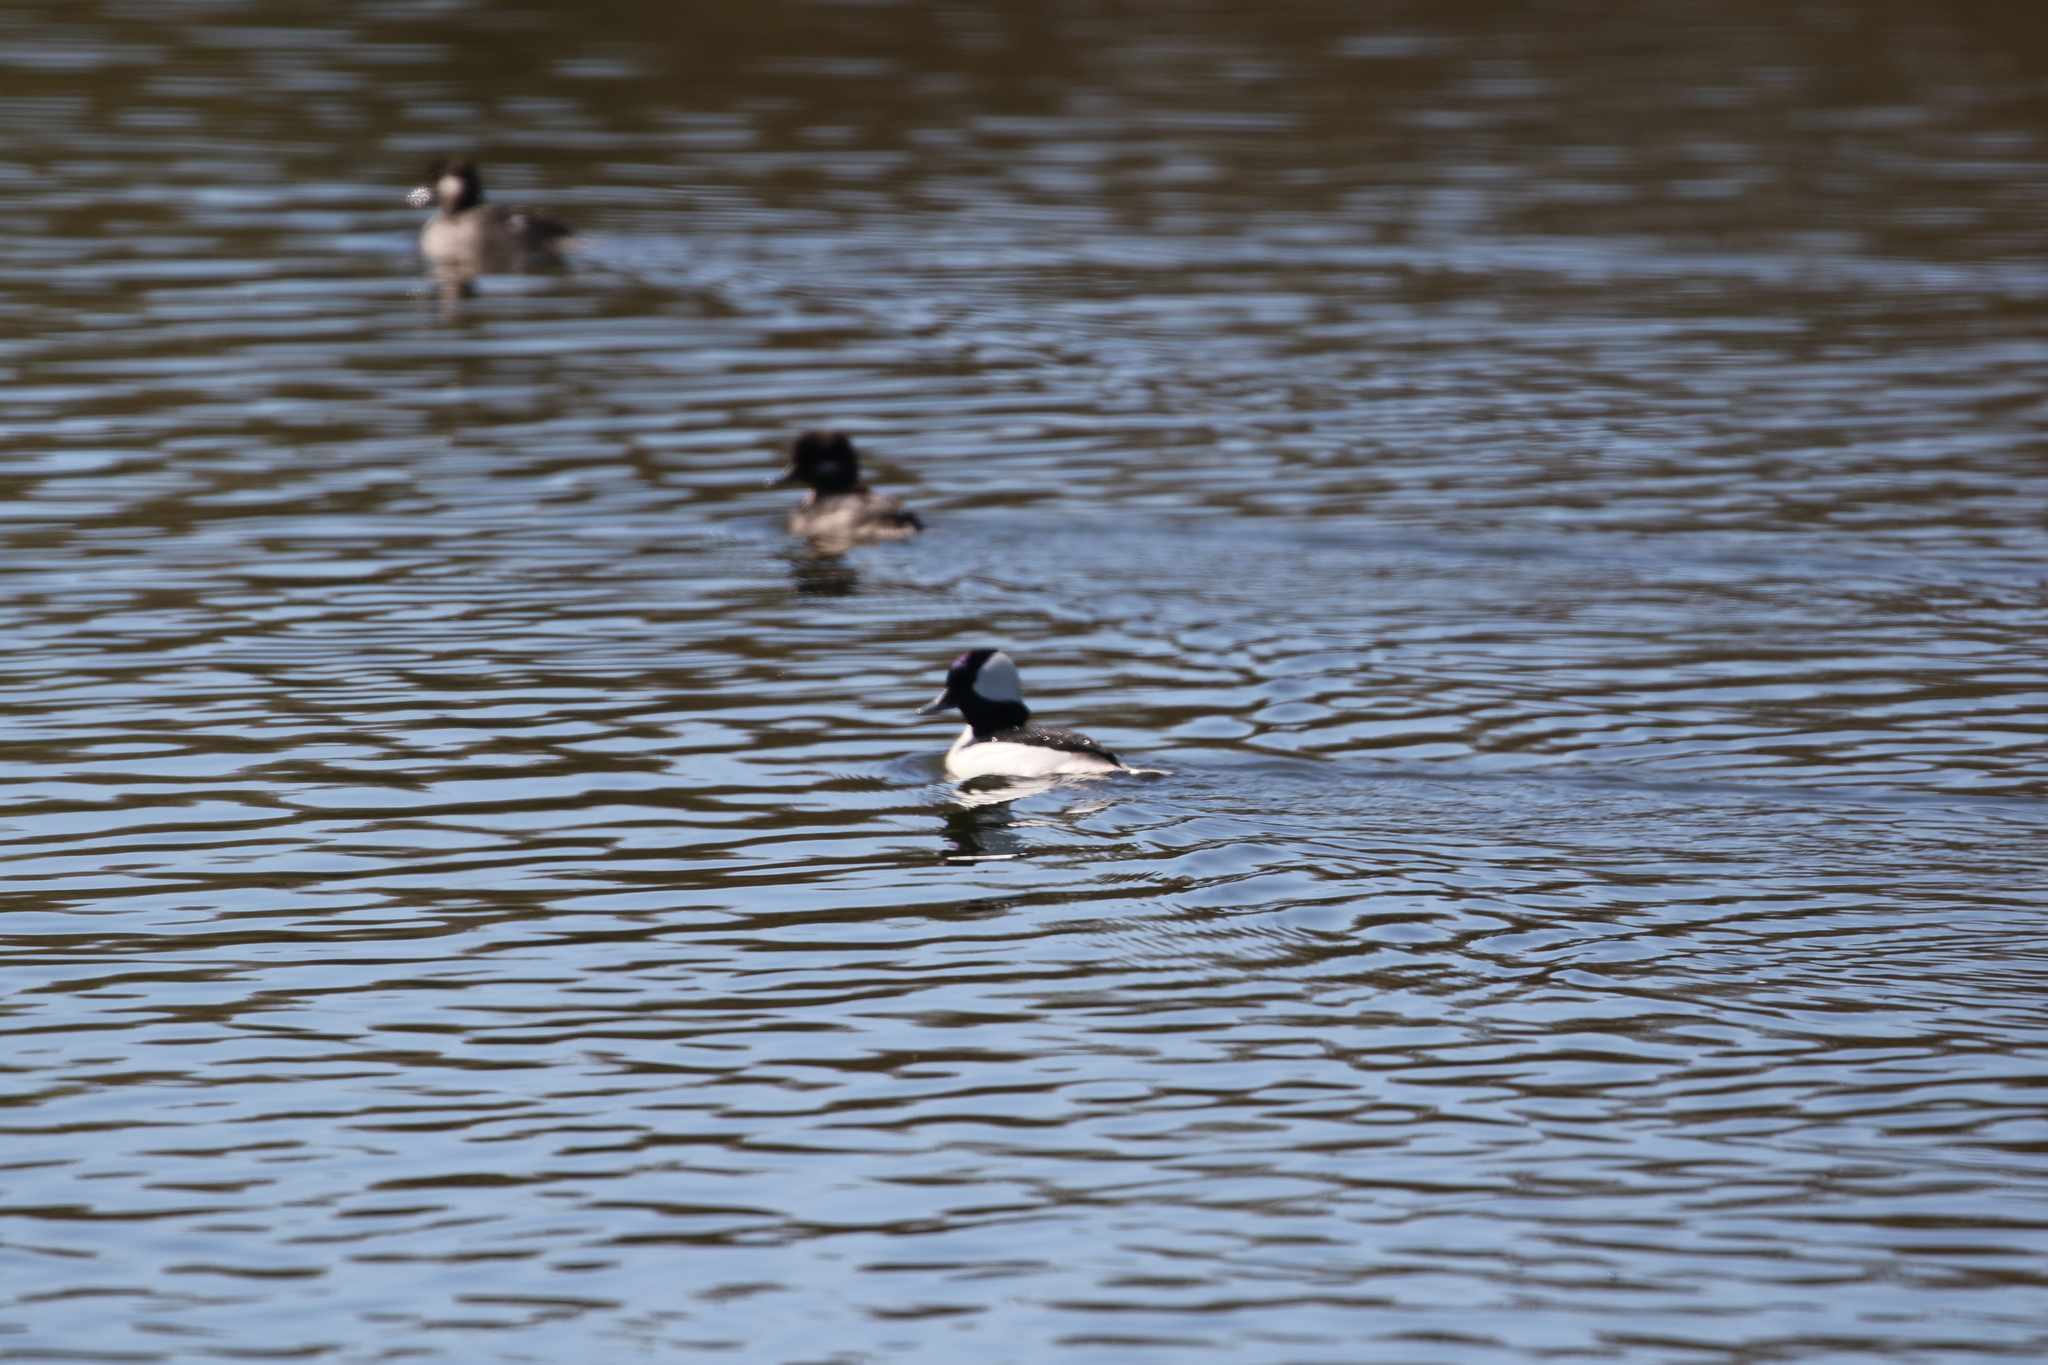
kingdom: Animalia
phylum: Chordata
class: Aves
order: Anseriformes
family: Anatidae
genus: Bucephala
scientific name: Bucephala albeola
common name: Bufflehead
